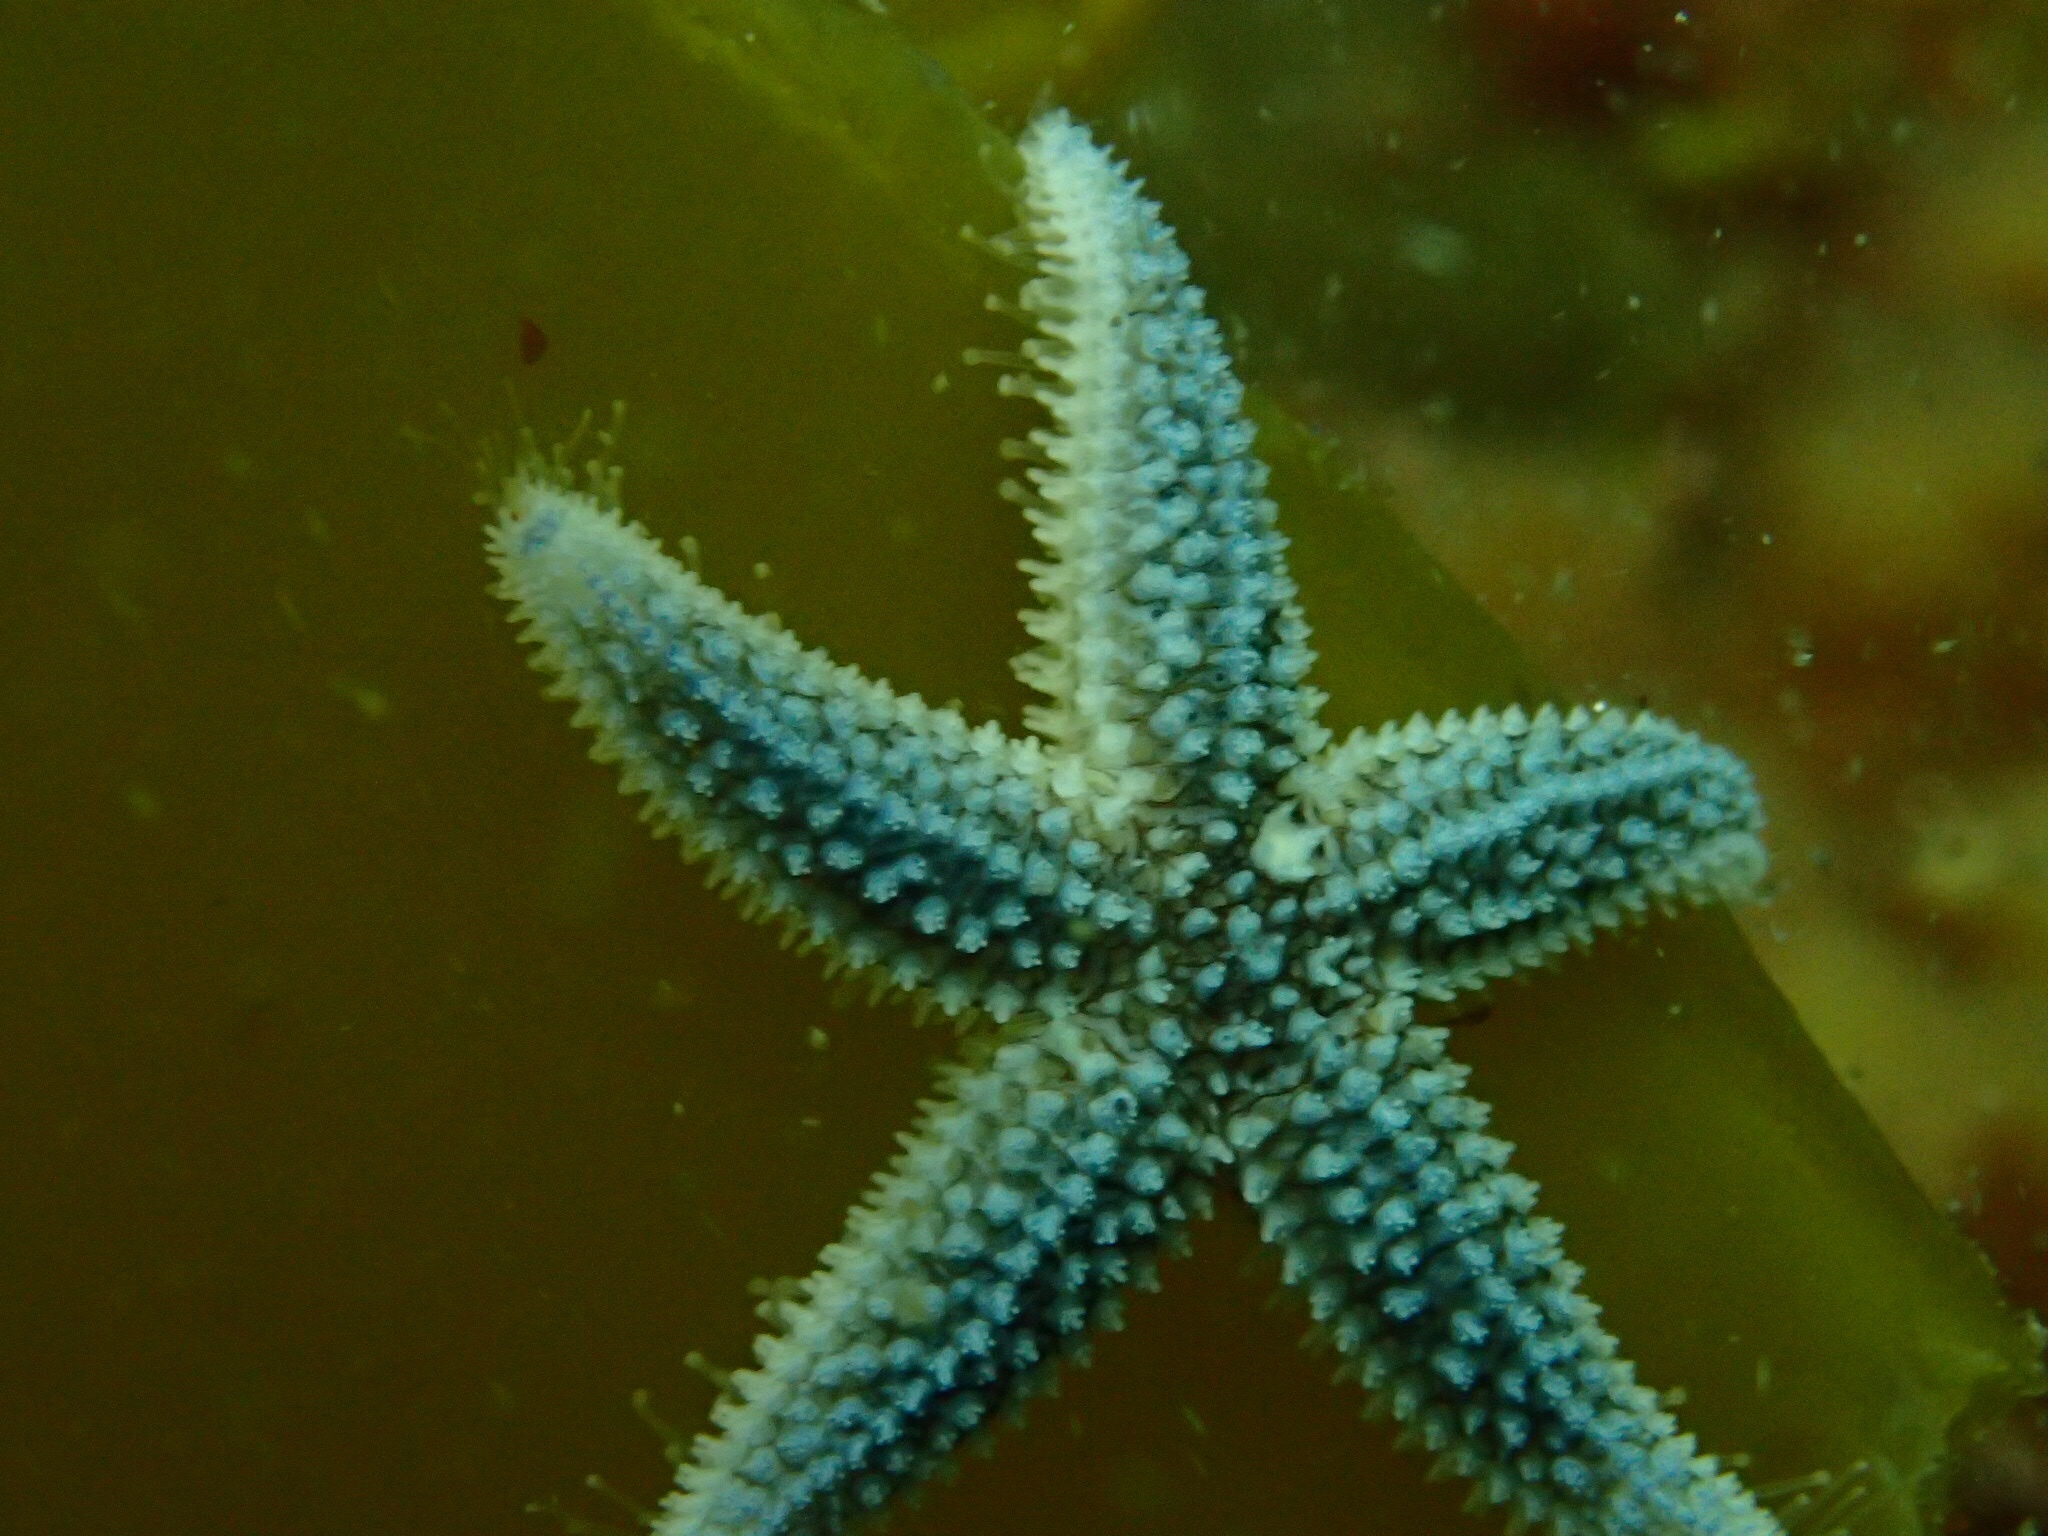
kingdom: Animalia
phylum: Echinodermata
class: Asteroidea
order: Forcipulatida
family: Asteriidae
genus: Asterias
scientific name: Asterias rubens
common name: Common starfish
